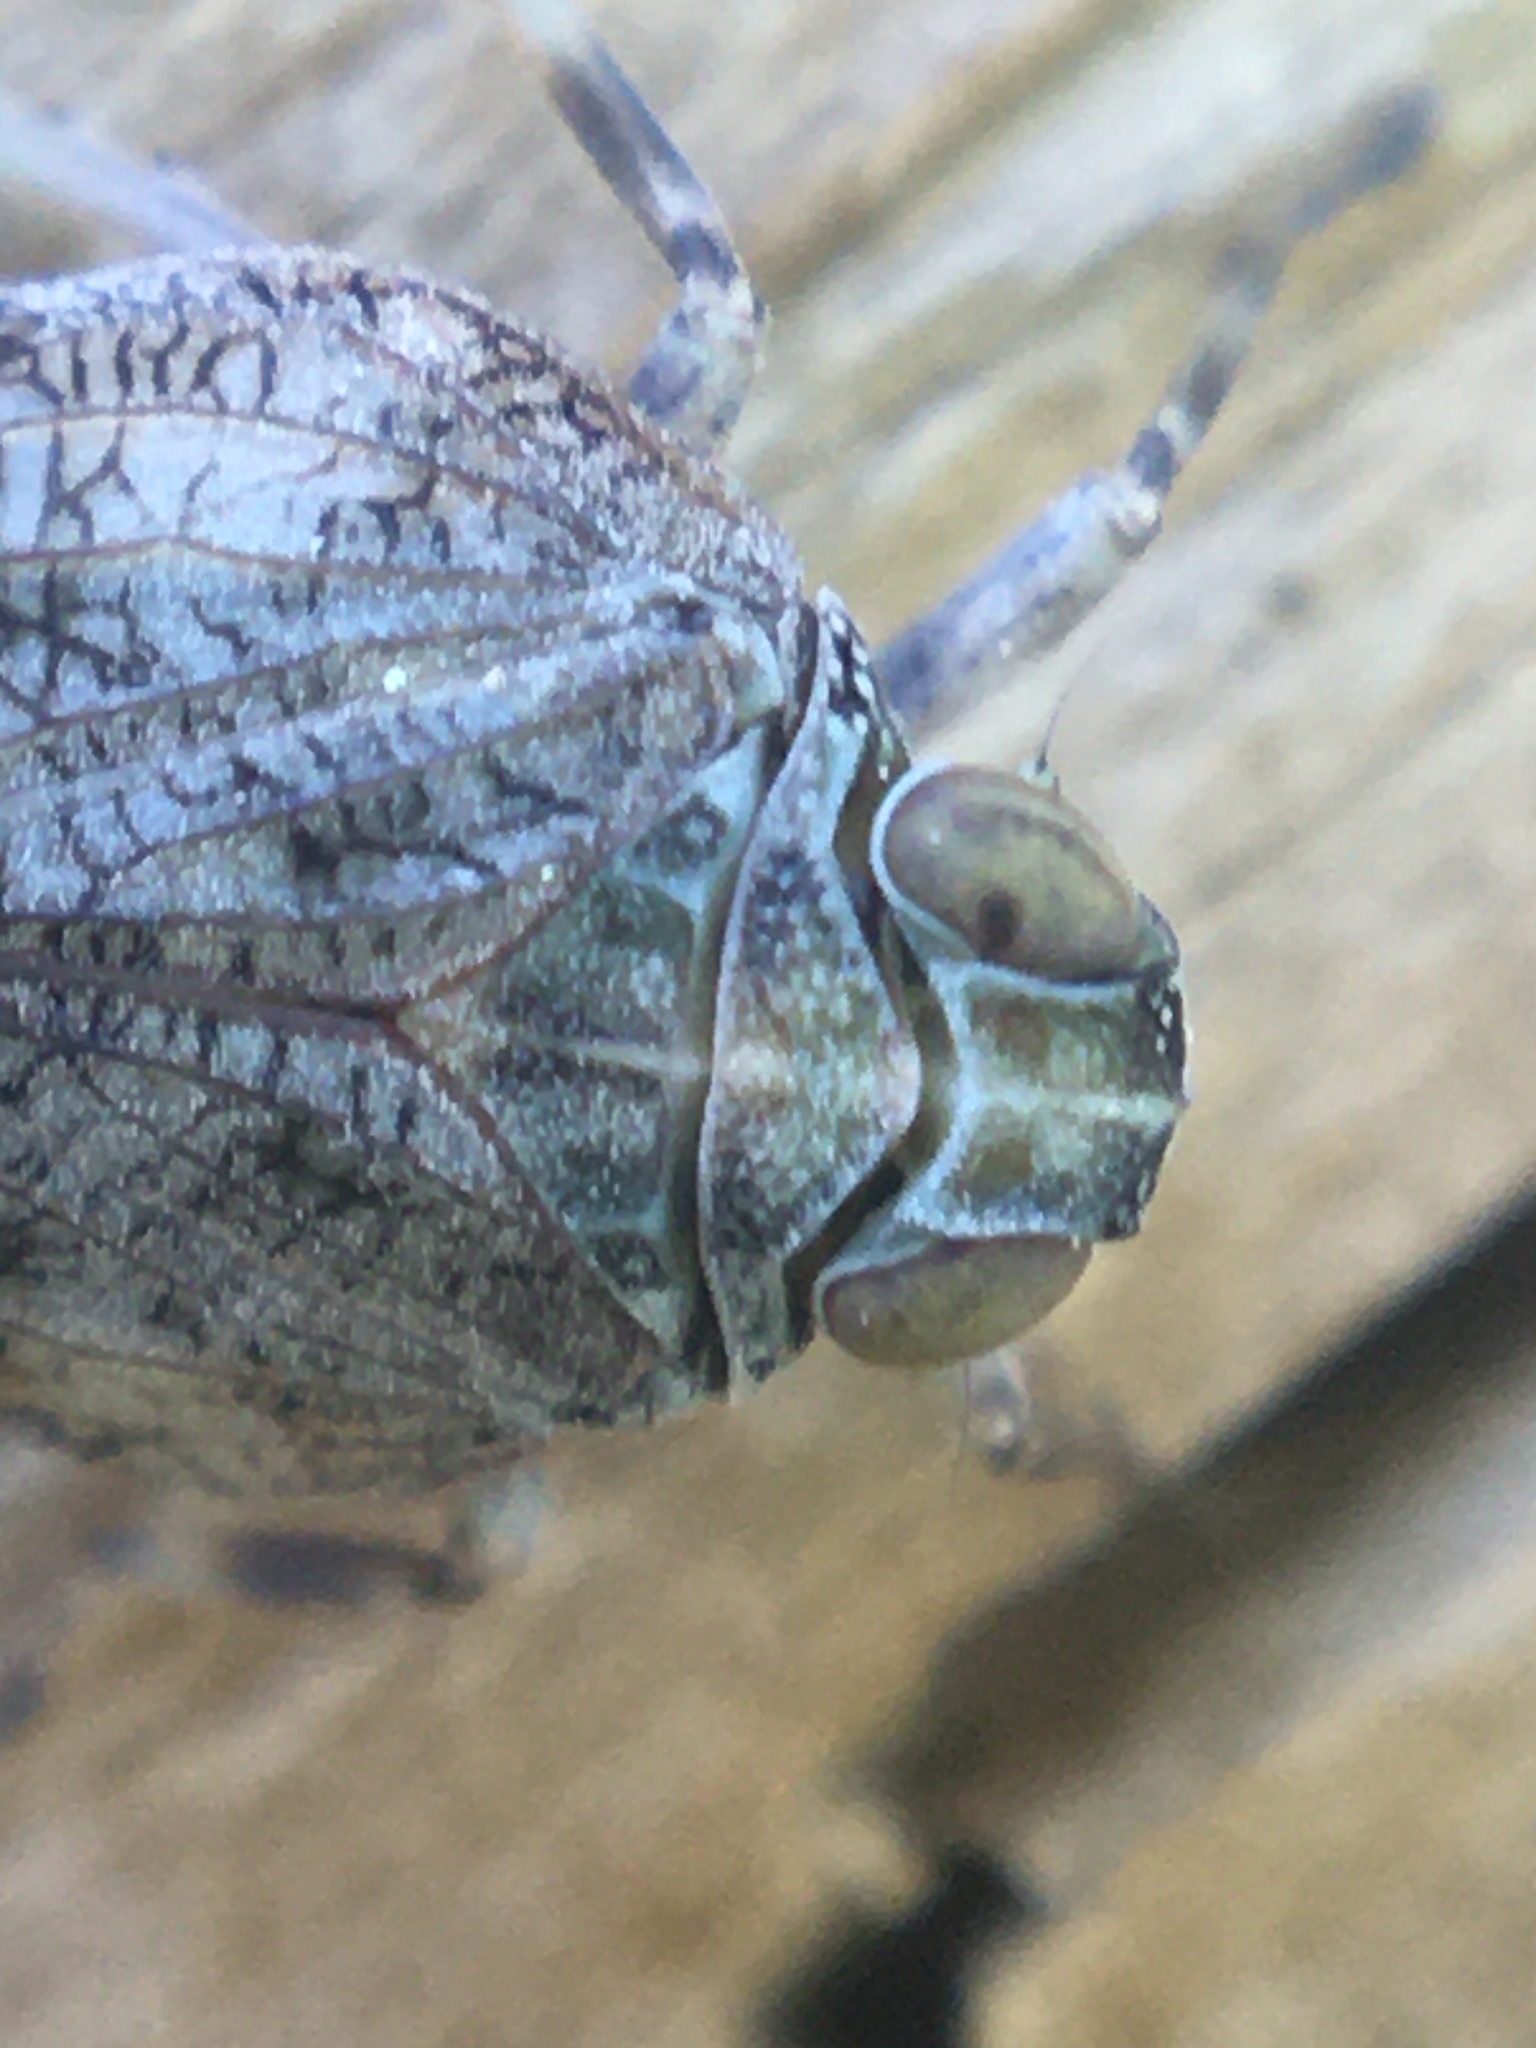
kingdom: Animalia
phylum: Arthropoda
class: Insecta
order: Hemiptera
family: Issidae
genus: Issus
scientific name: Issus coleoptratus
